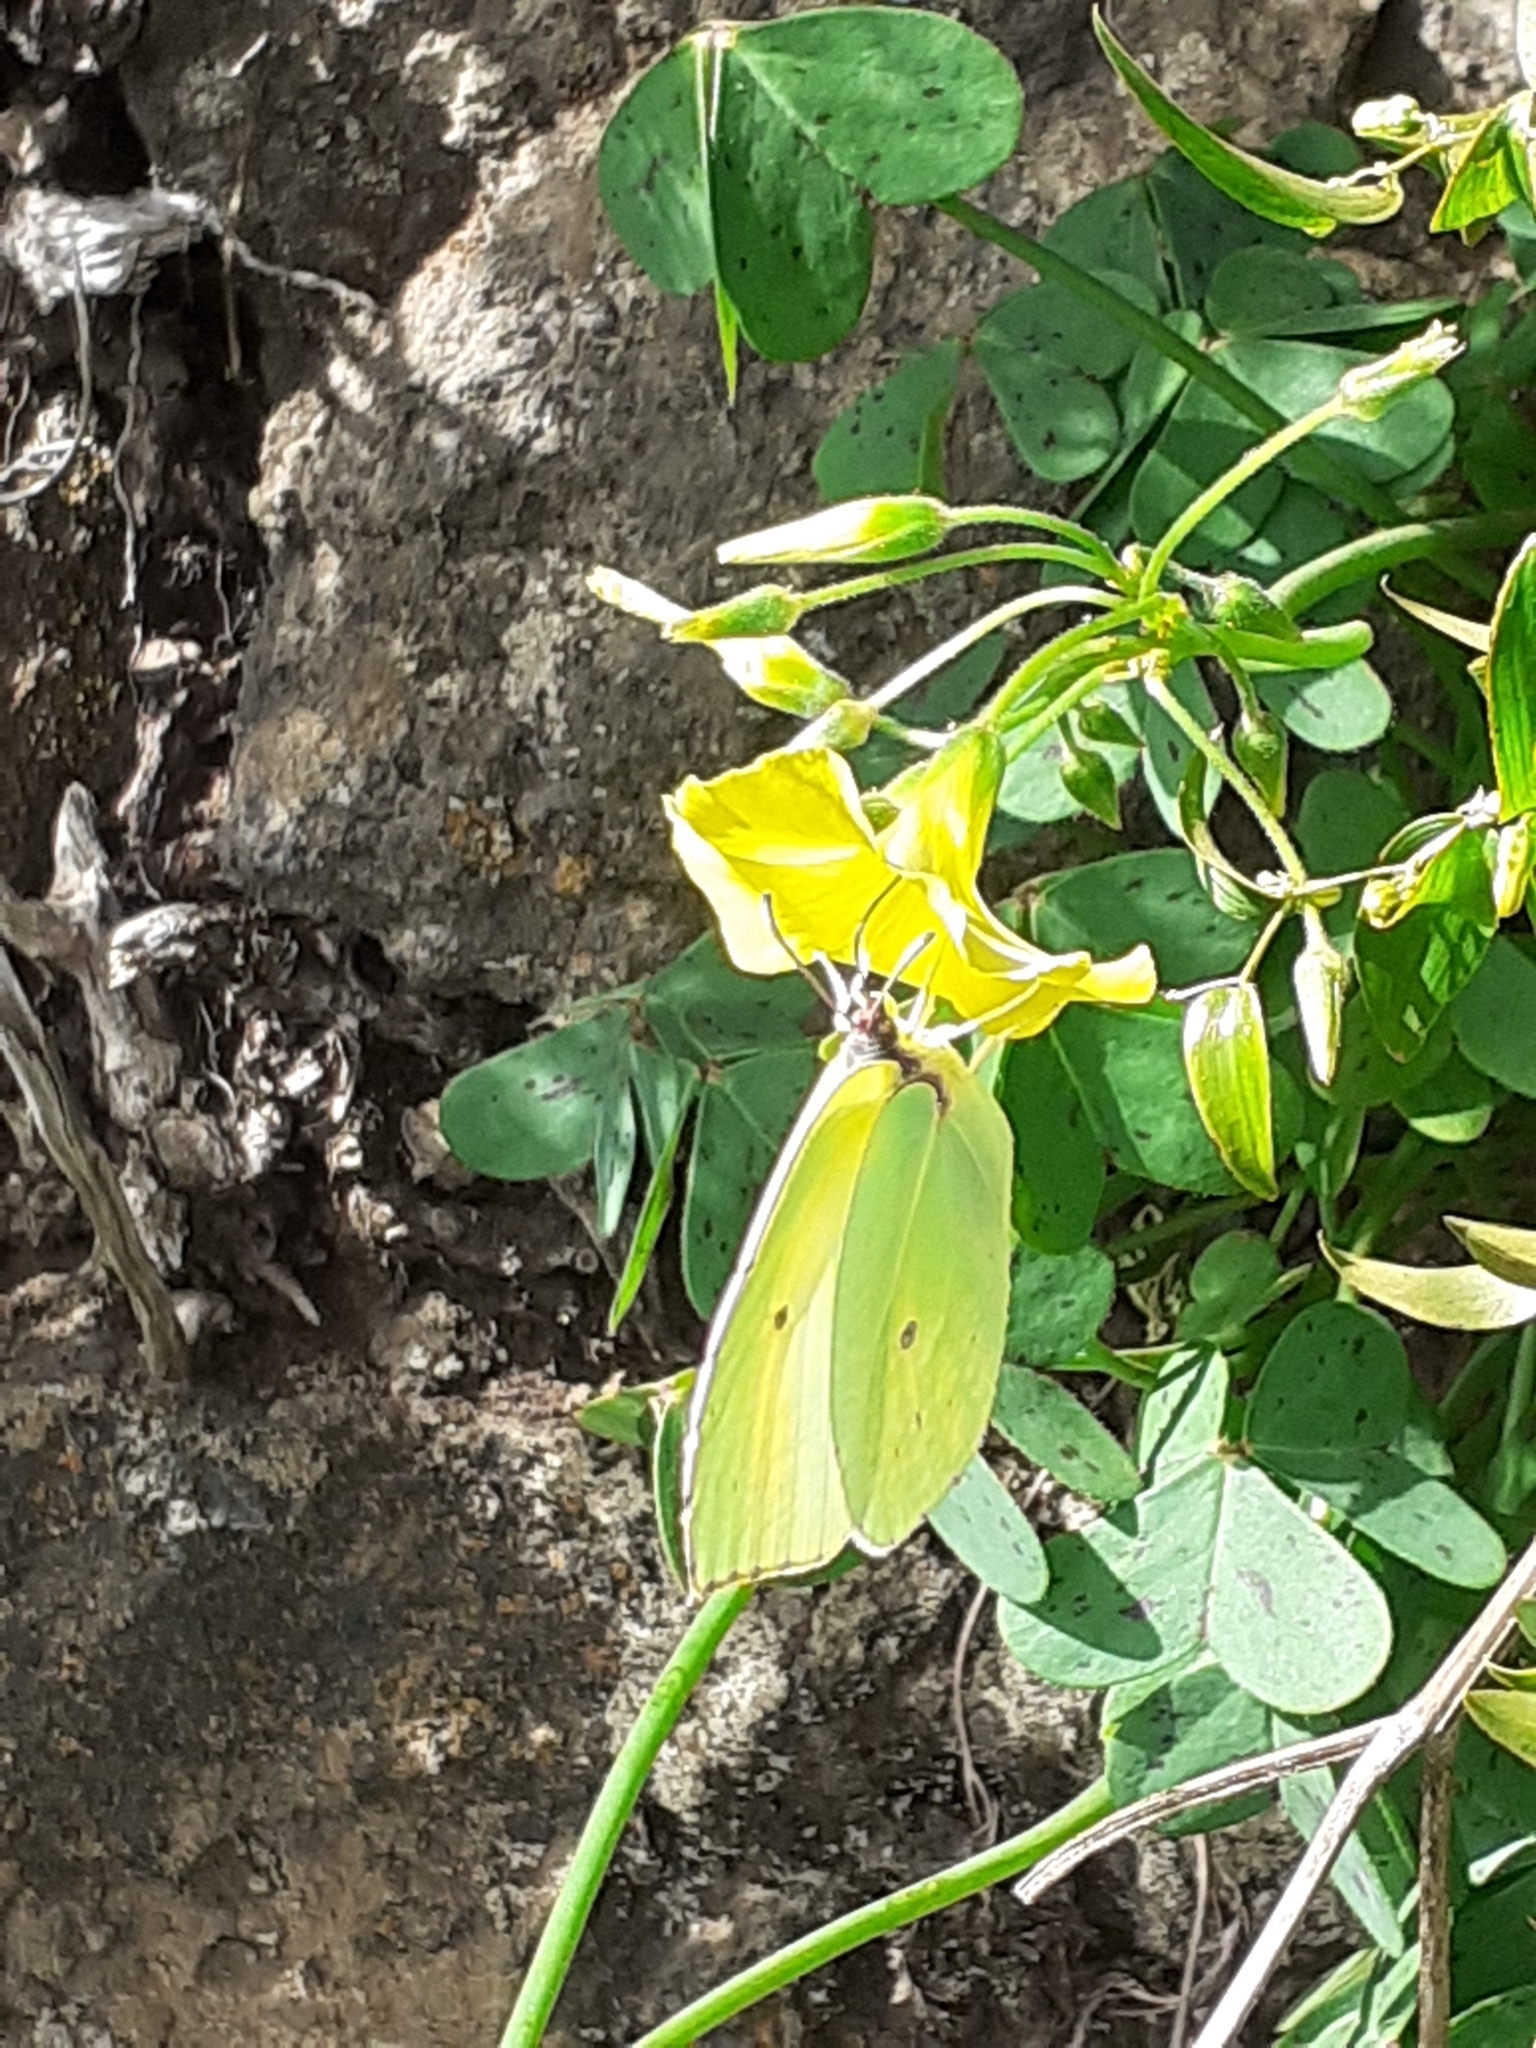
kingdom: Animalia
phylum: Arthropoda
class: Insecta
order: Lepidoptera
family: Pieridae
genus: Gonepteryx
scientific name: Gonepteryx cleobule
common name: Canary brimstone
